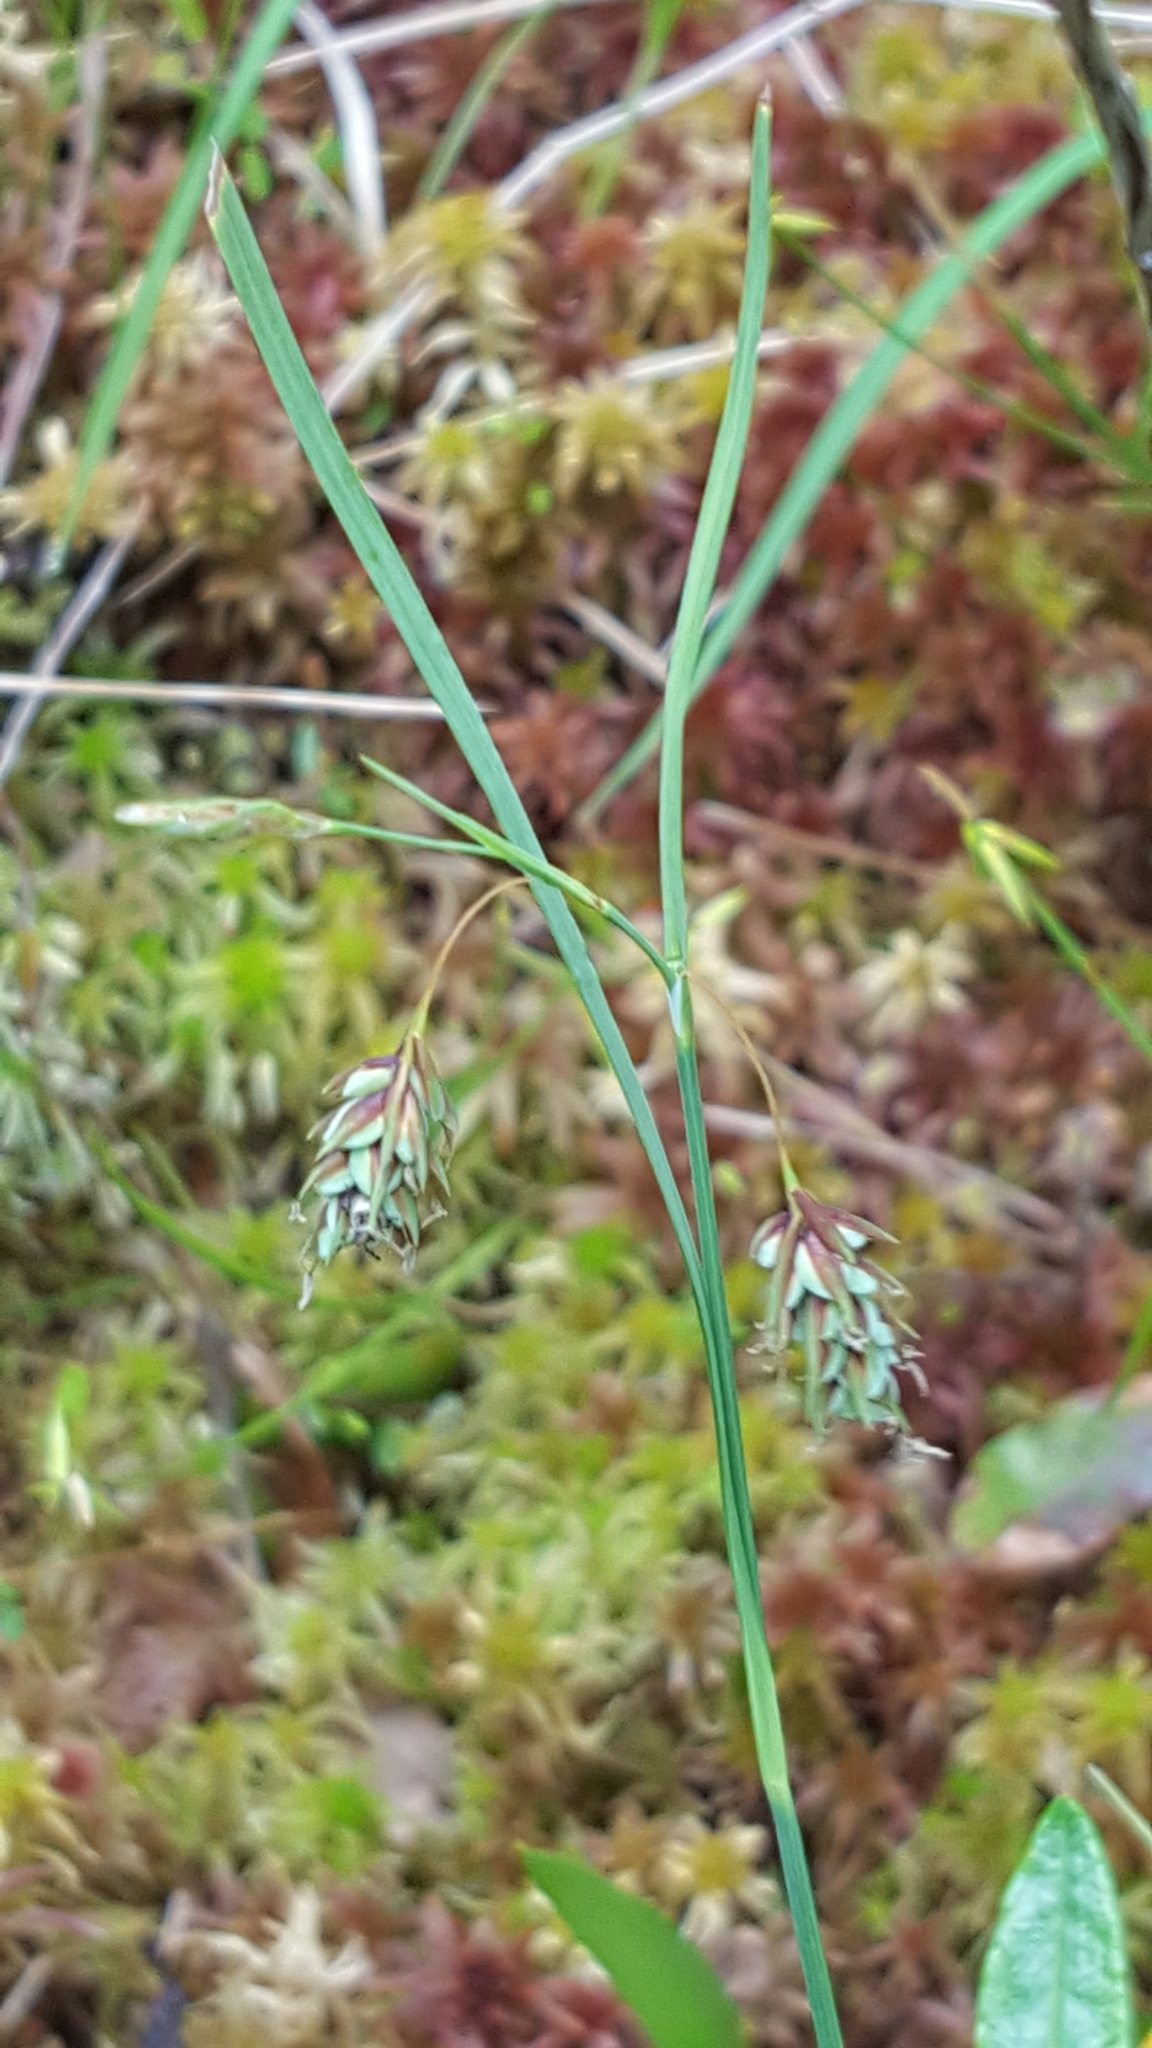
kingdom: Plantae
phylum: Tracheophyta
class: Liliopsida
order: Poales
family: Cyperaceae
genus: Carex
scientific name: Carex magellanica
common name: Bog sedge
